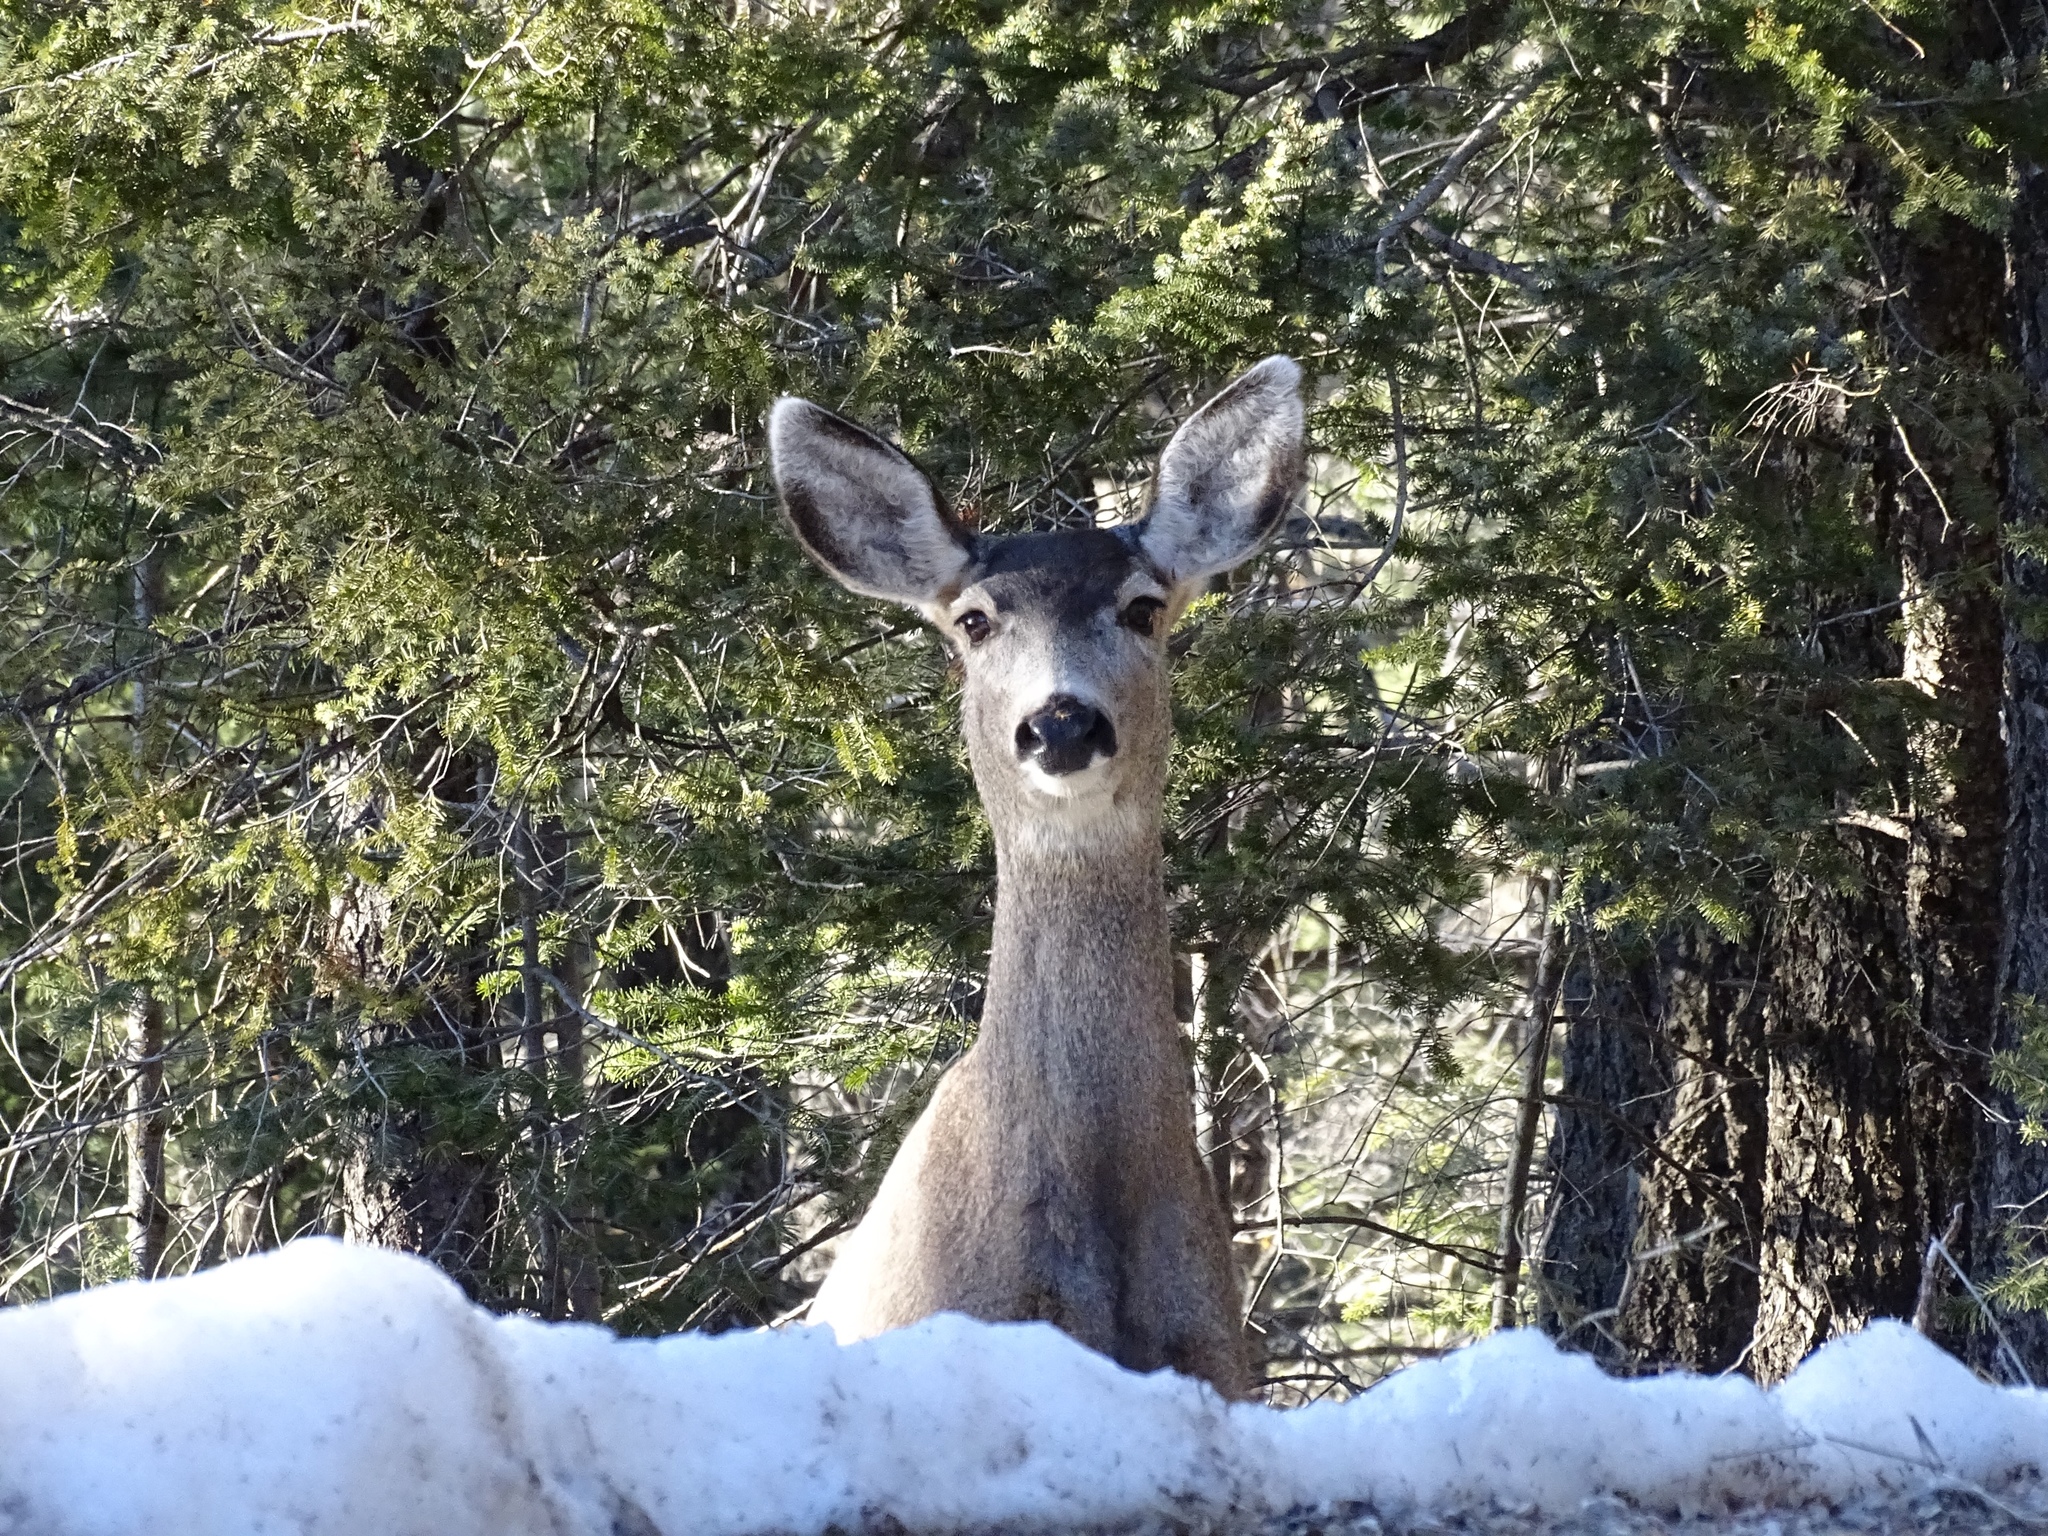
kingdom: Animalia
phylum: Chordata
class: Mammalia
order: Artiodactyla
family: Cervidae
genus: Odocoileus
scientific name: Odocoileus hemionus
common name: Mule deer
